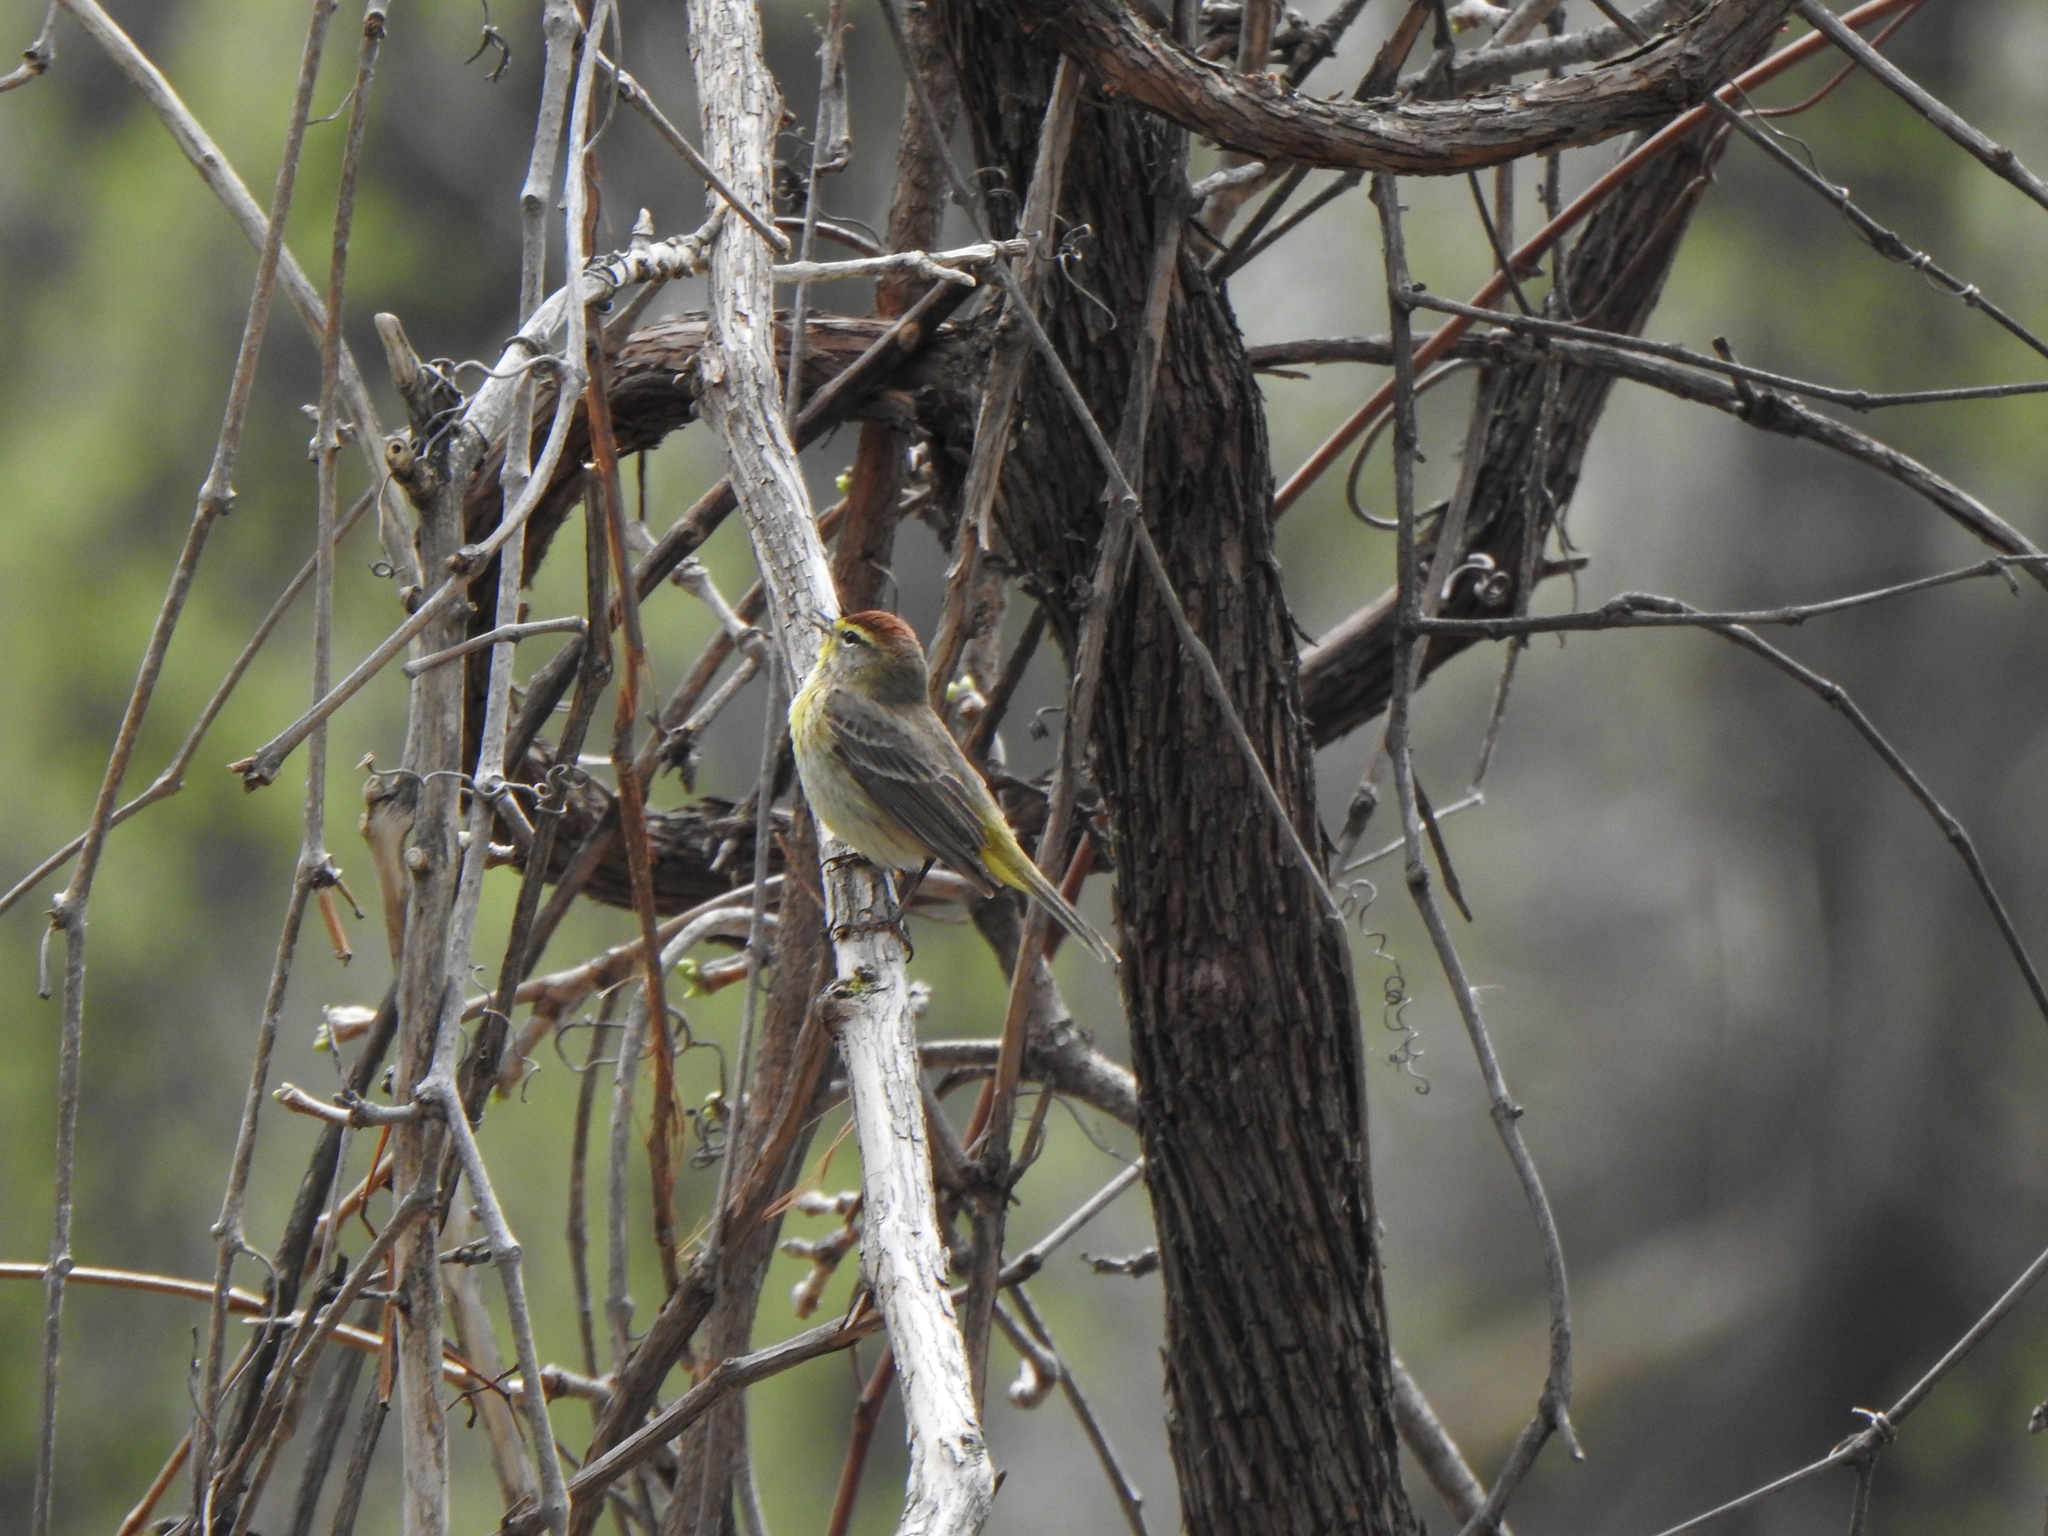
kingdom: Animalia
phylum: Chordata
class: Aves
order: Passeriformes
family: Parulidae
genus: Setophaga
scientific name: Setophaga palmarum
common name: Palm warbler
